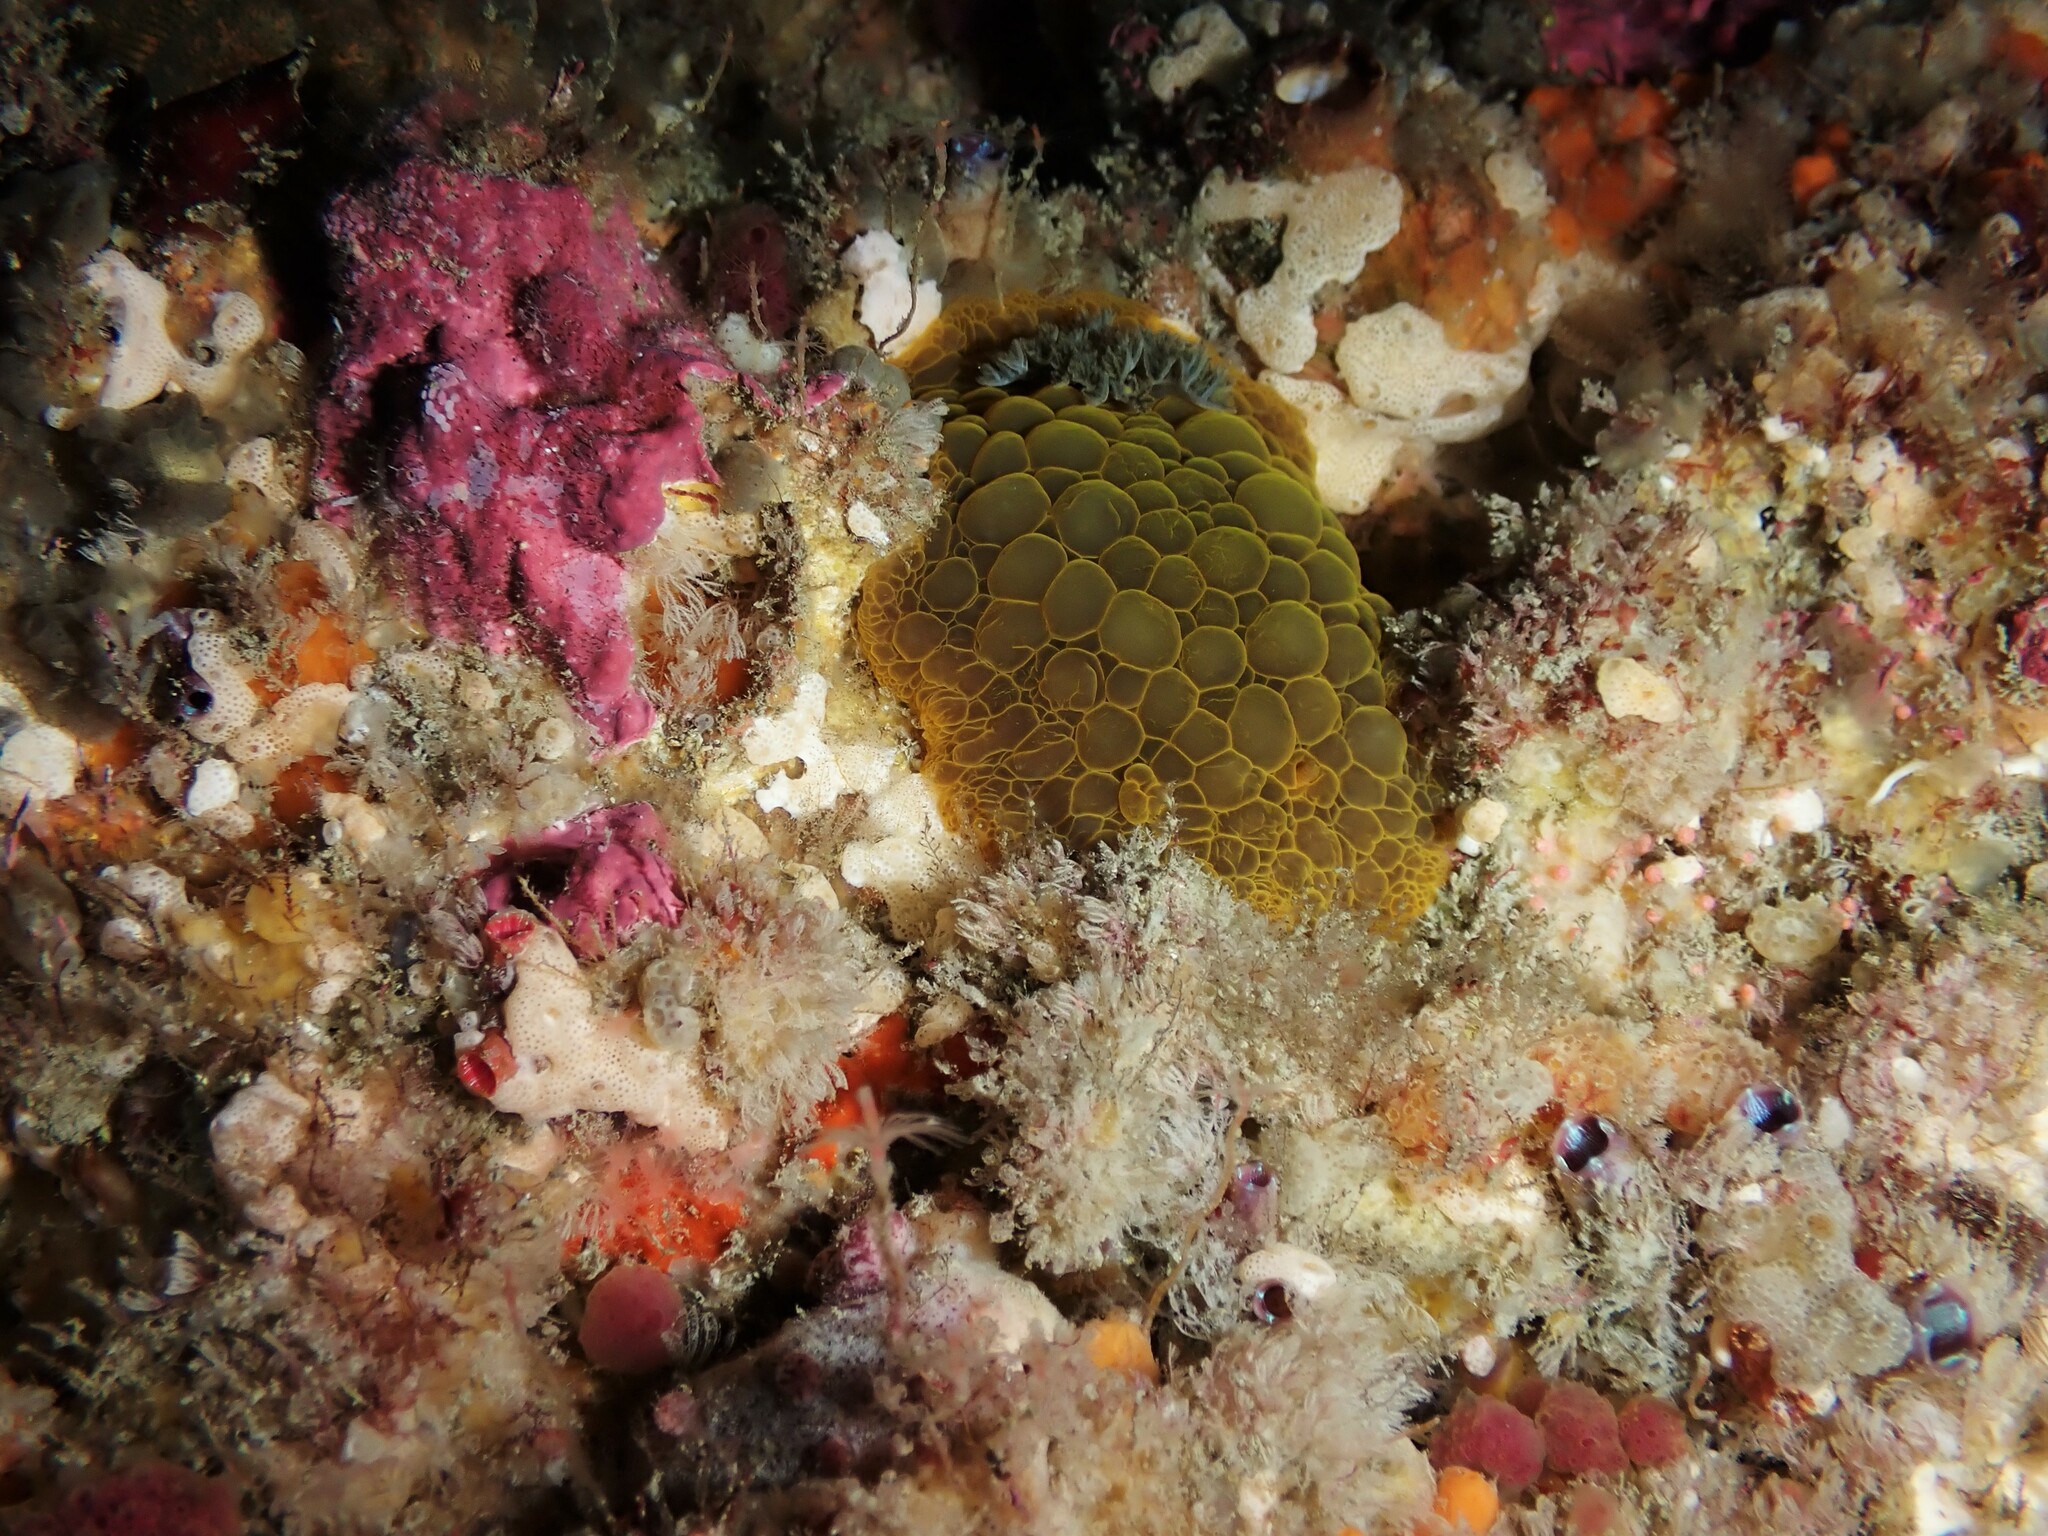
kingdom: Animalia
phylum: Mollusca
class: Gastropoda
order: Nudibranchia
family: Dorididae
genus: Doris
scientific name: Doris wellingtonensis
